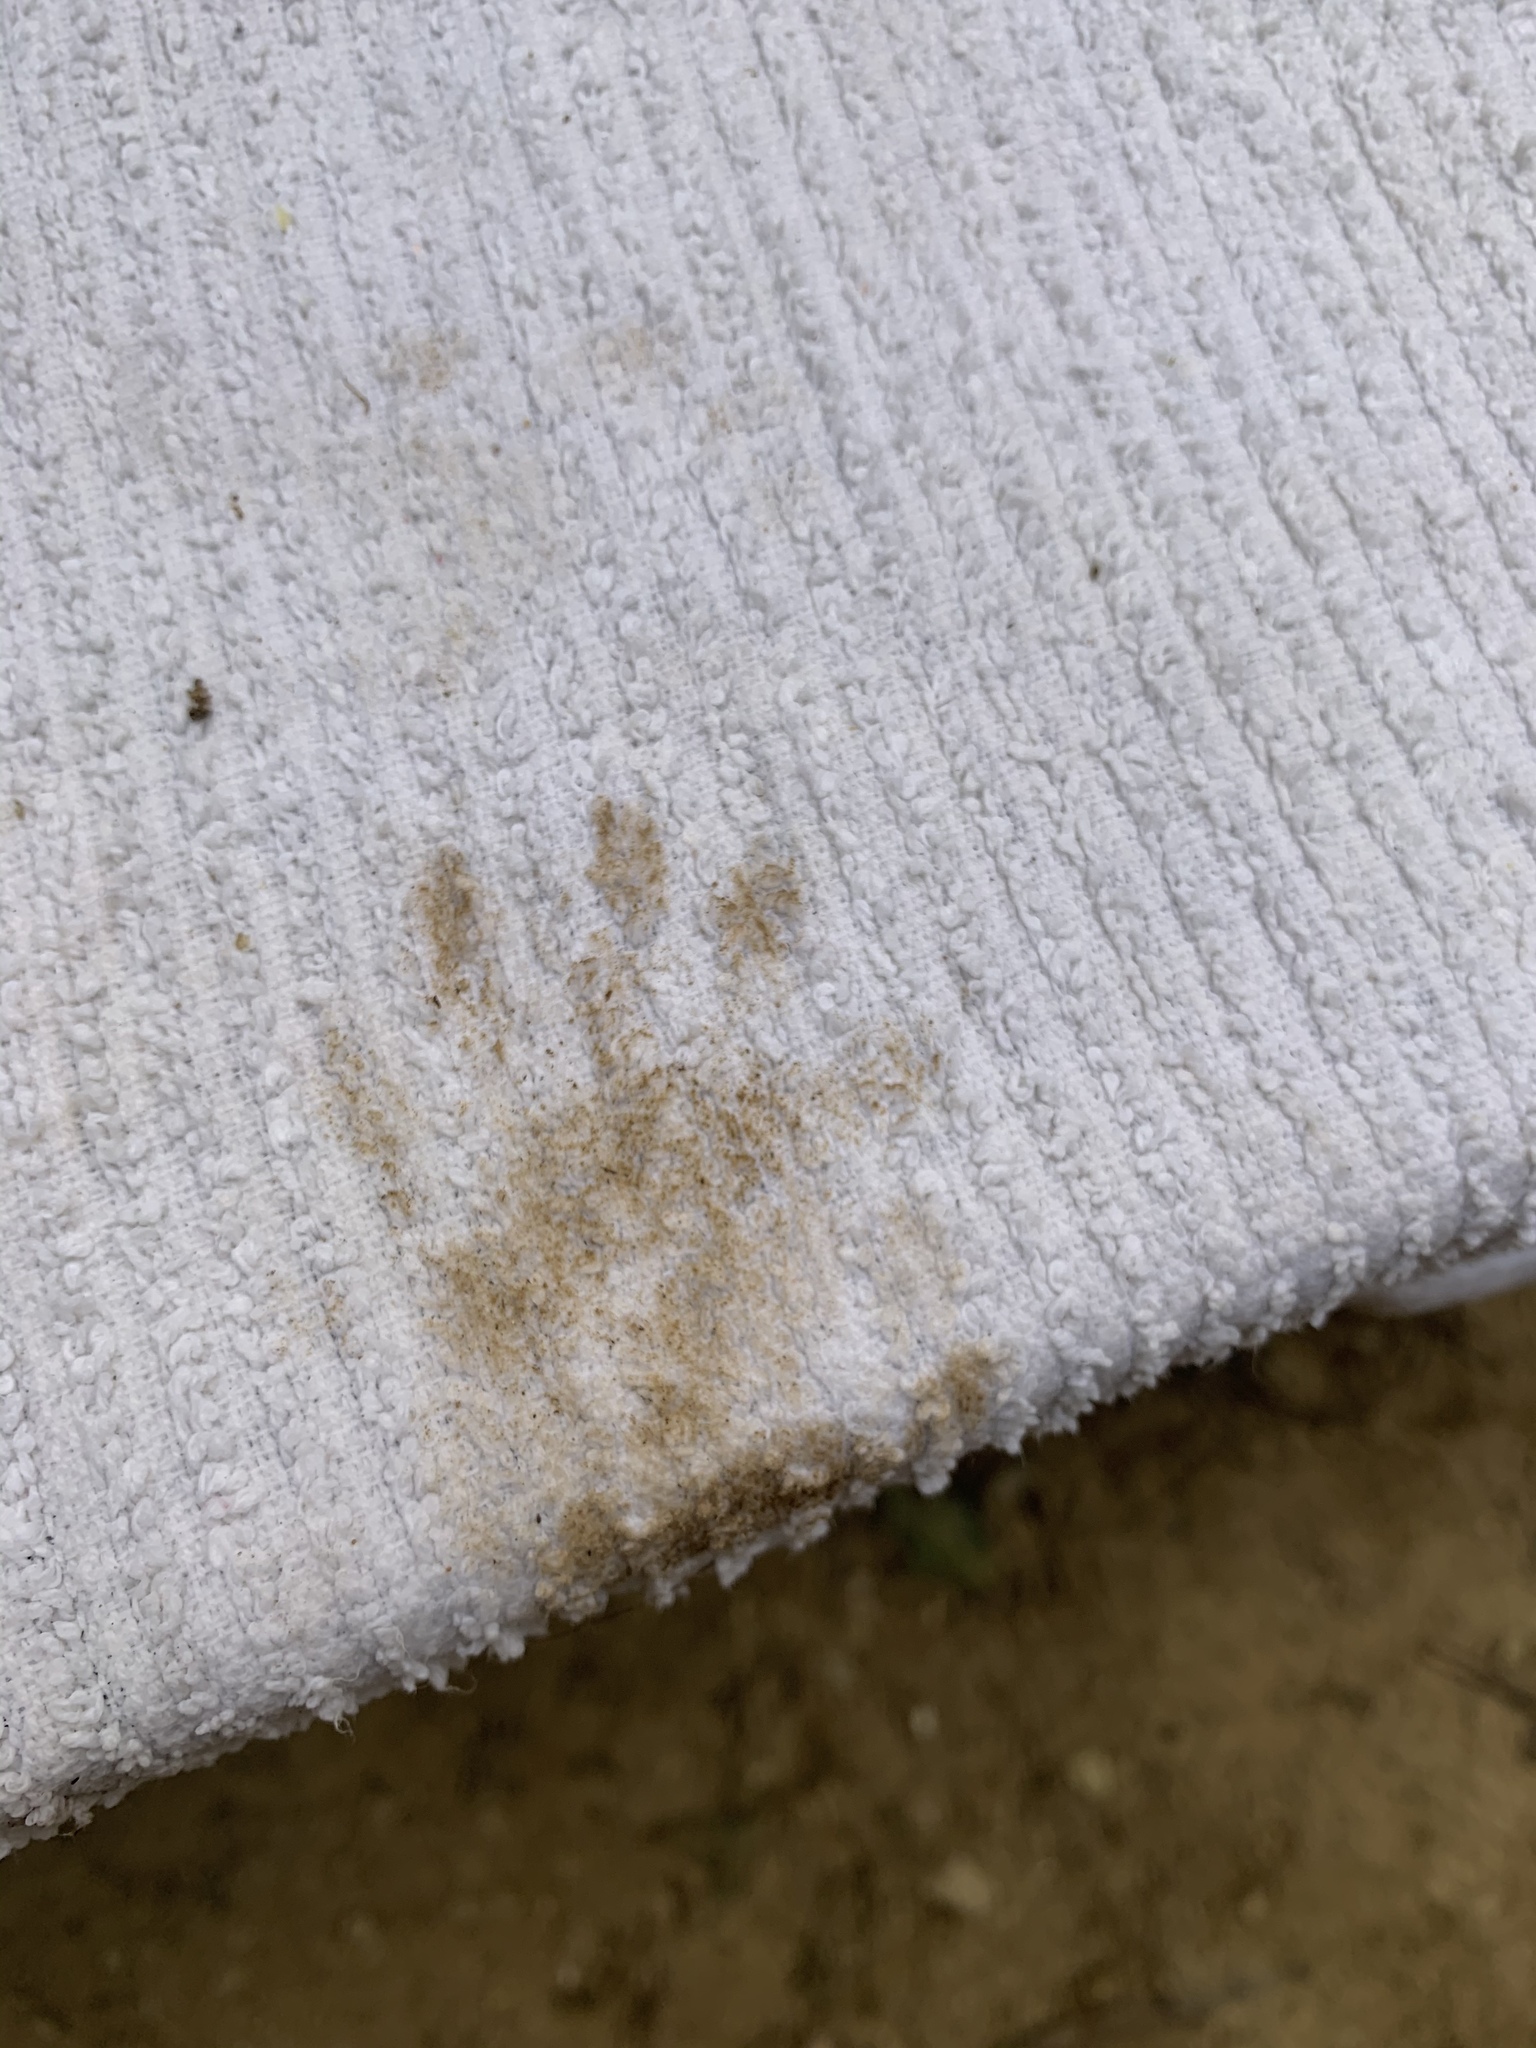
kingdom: Animalia
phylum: Chordata
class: Mammalia
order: Carnivora
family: Procyonidae
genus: Procyon
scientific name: Procyon lotor
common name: Raccoon
